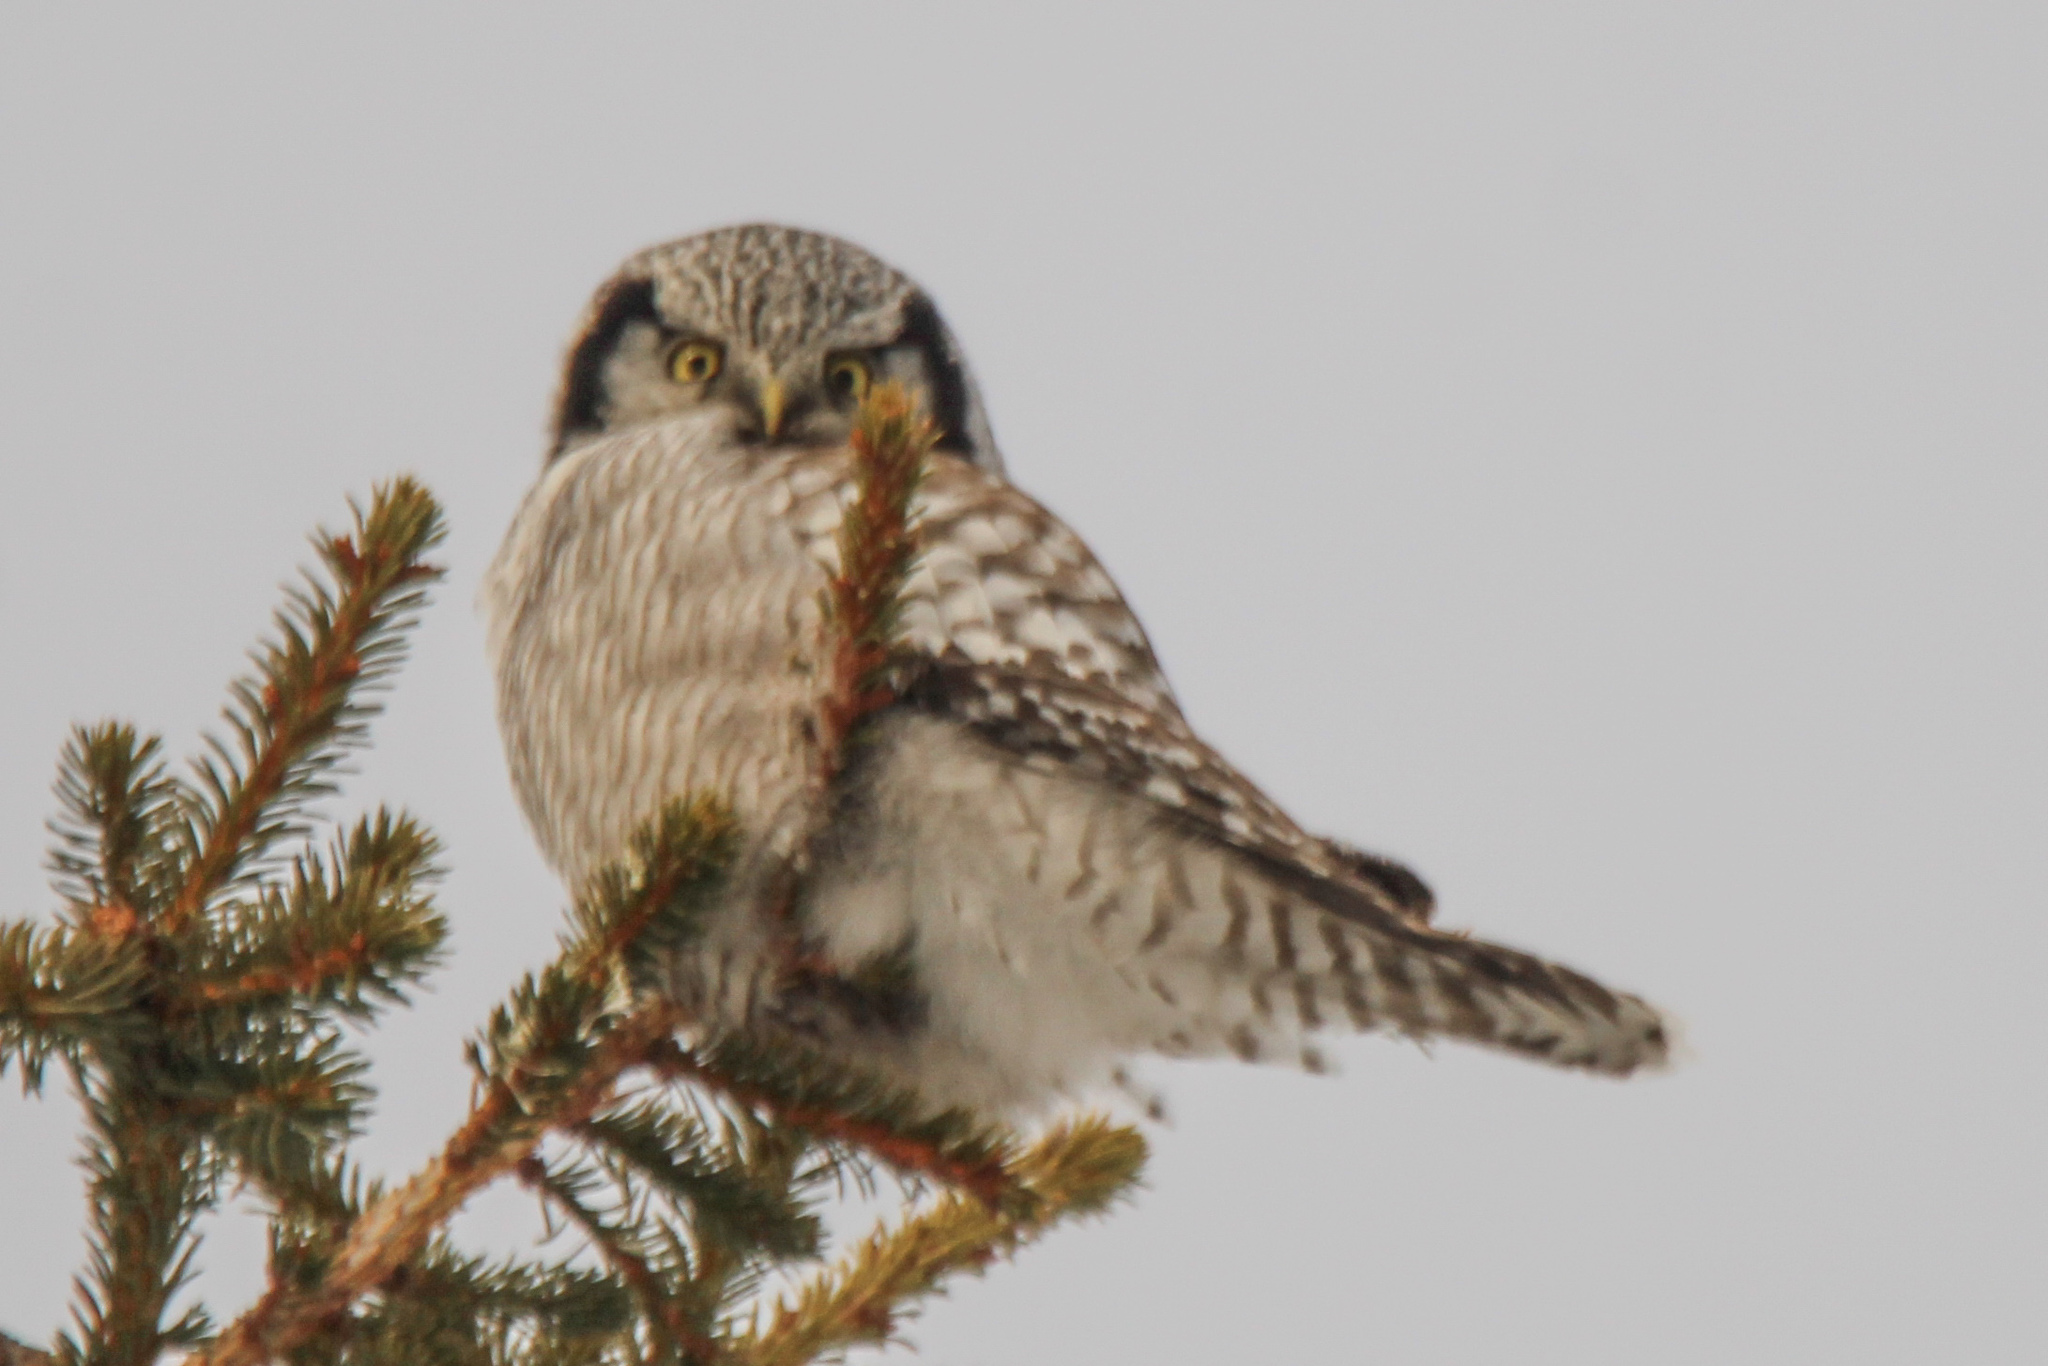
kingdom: Animalia
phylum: Chordata
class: Aves
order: Strigiformes
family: Strigidae
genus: Surnia
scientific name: Surnia ulula
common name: Northern hawk-owl
